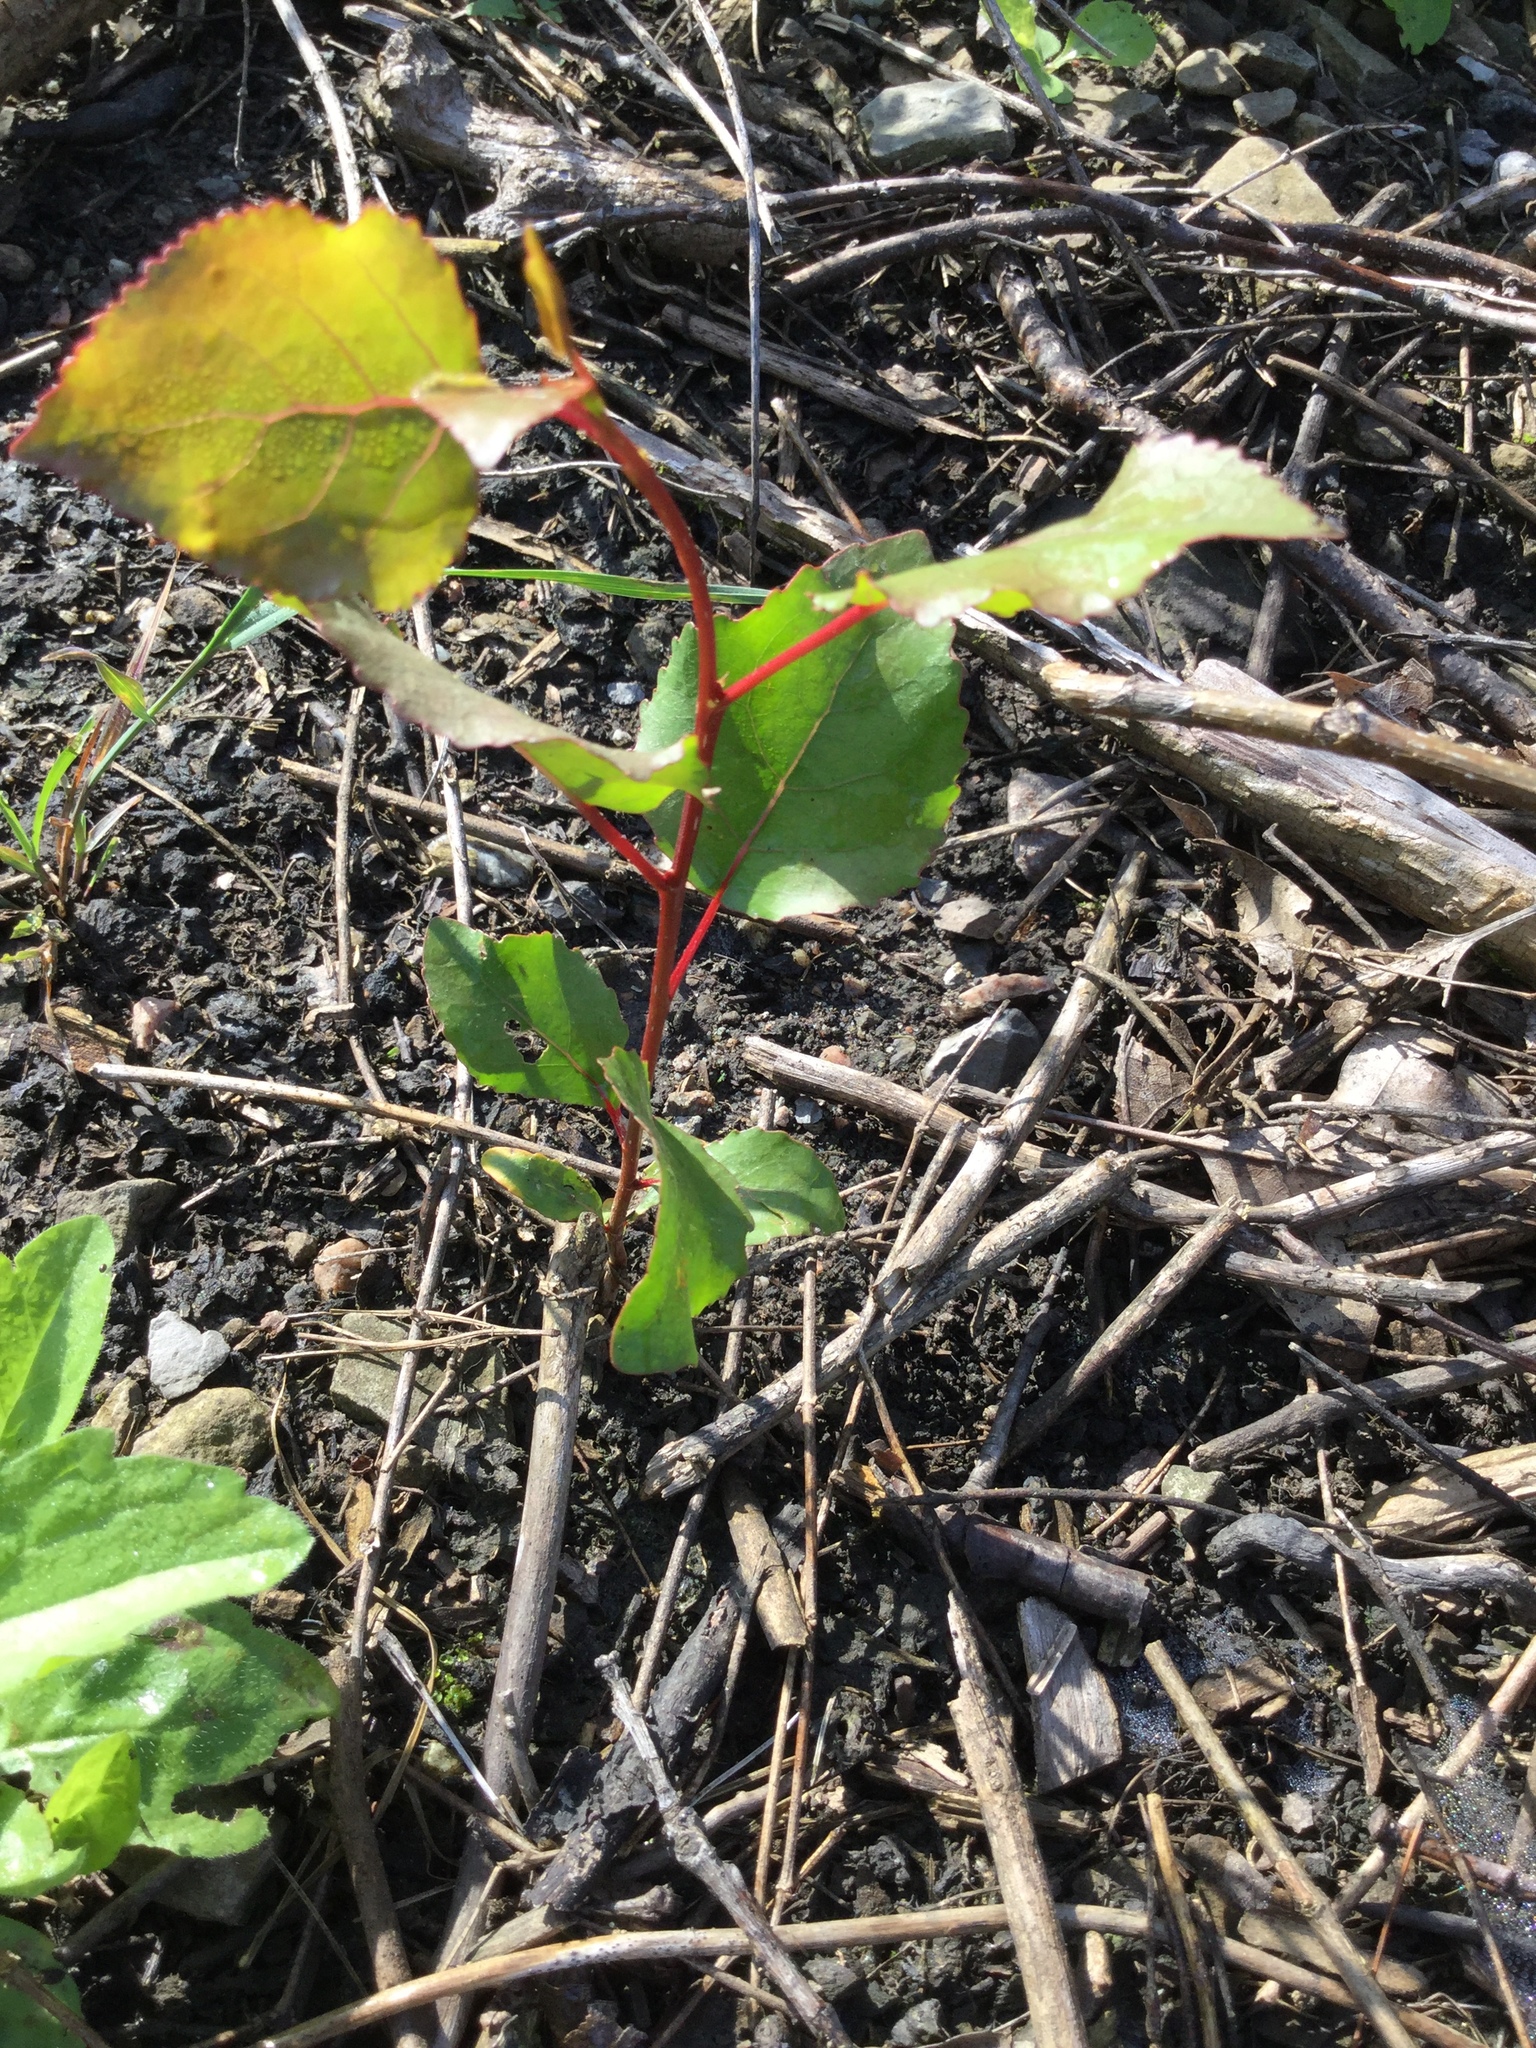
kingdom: Plantae
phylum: Tracheophyta
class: Magnoliopsida
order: Malpighiales
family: Salicaceae
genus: Populus
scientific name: Populus deltoides
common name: Eastern cottonwood
